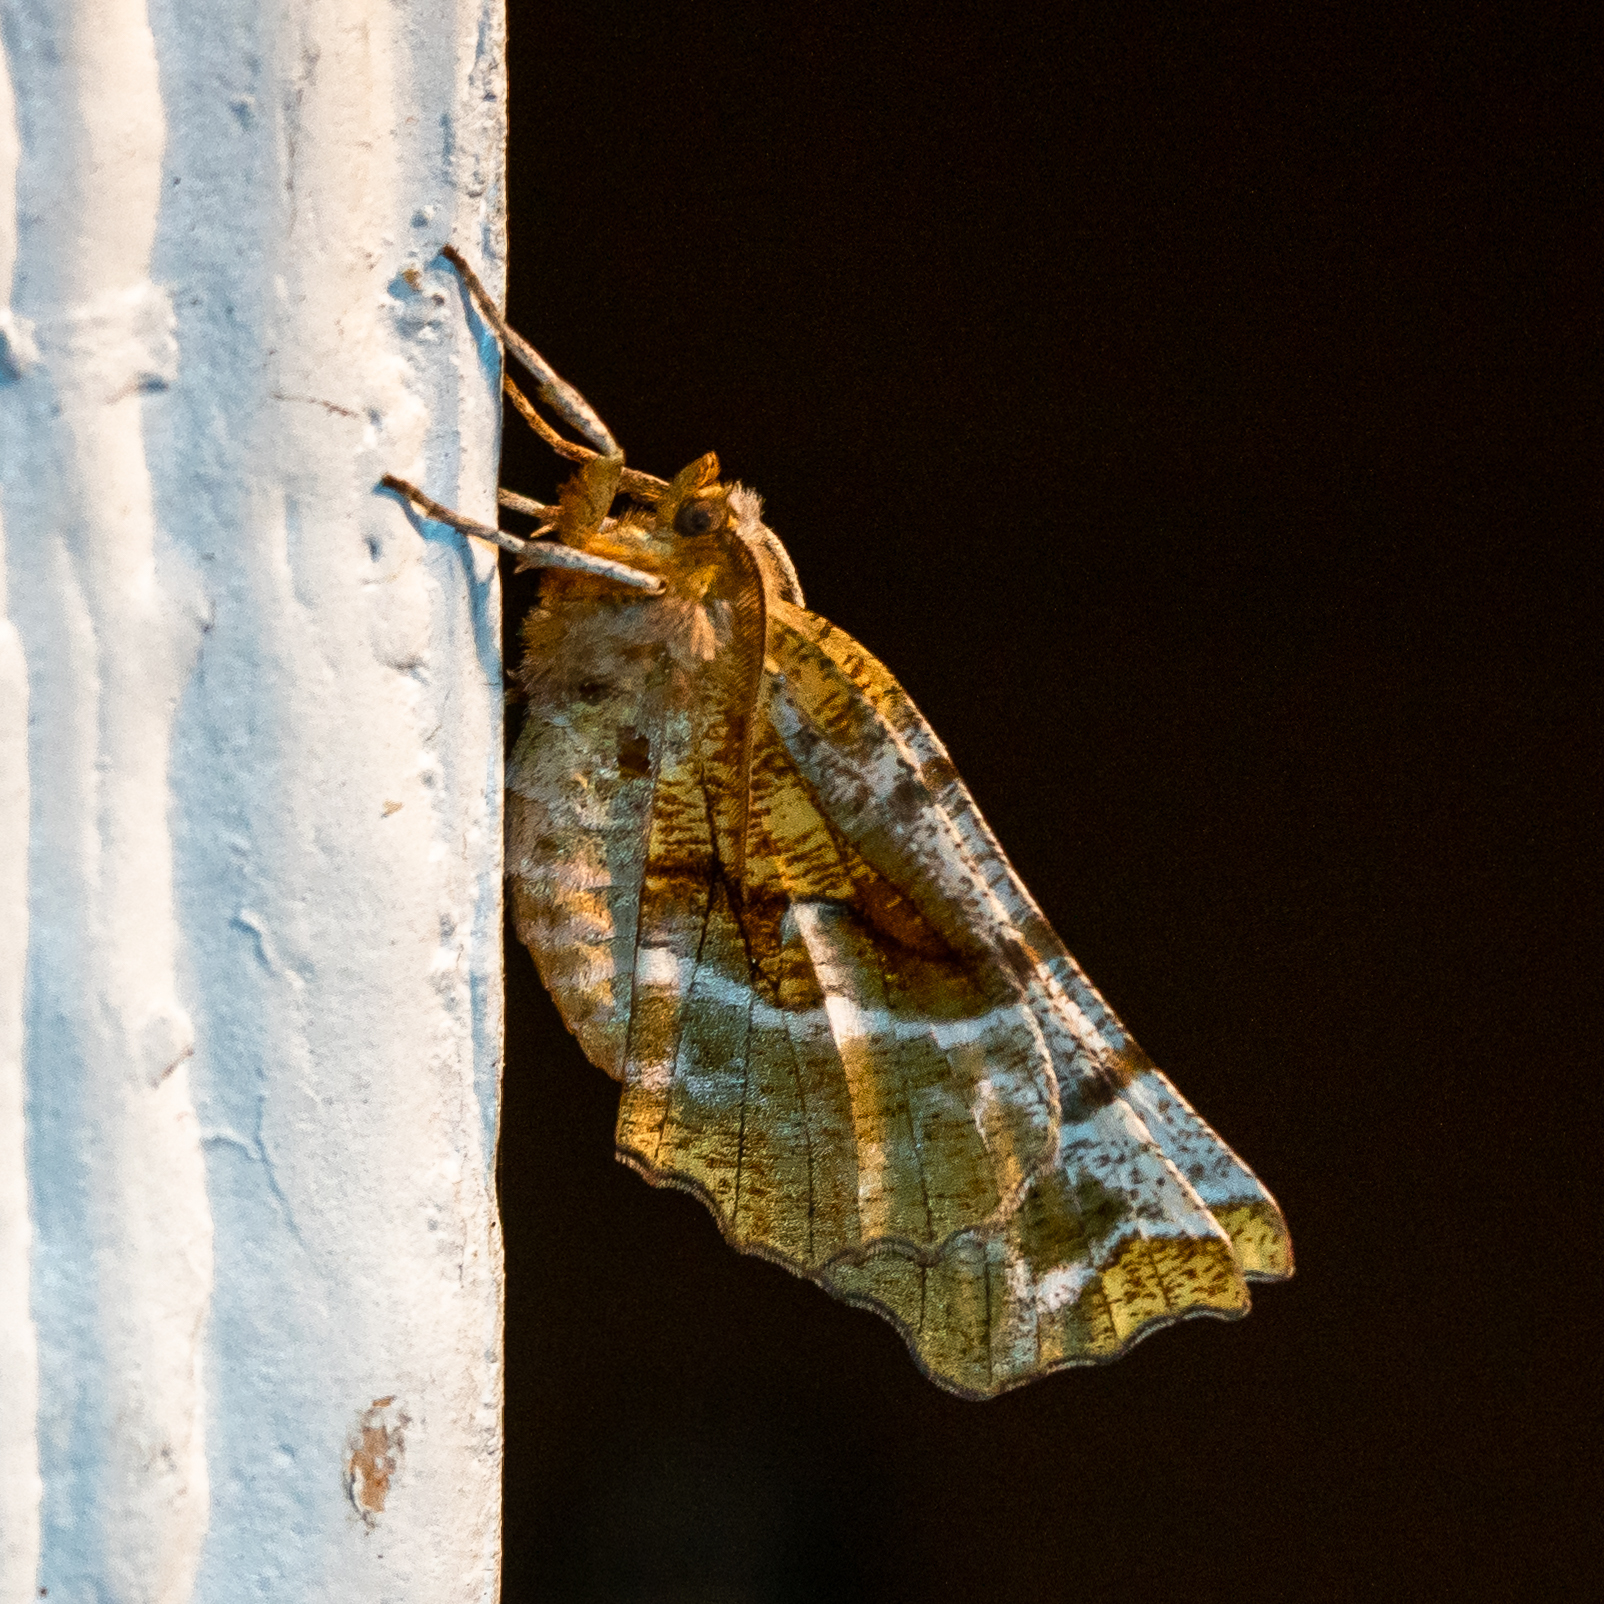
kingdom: Animalia
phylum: Arthropoda
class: Insecta
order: Lepidoptera
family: Geometridae
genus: Selenia
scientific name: Selenia kentaria
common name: Kent's geometer
